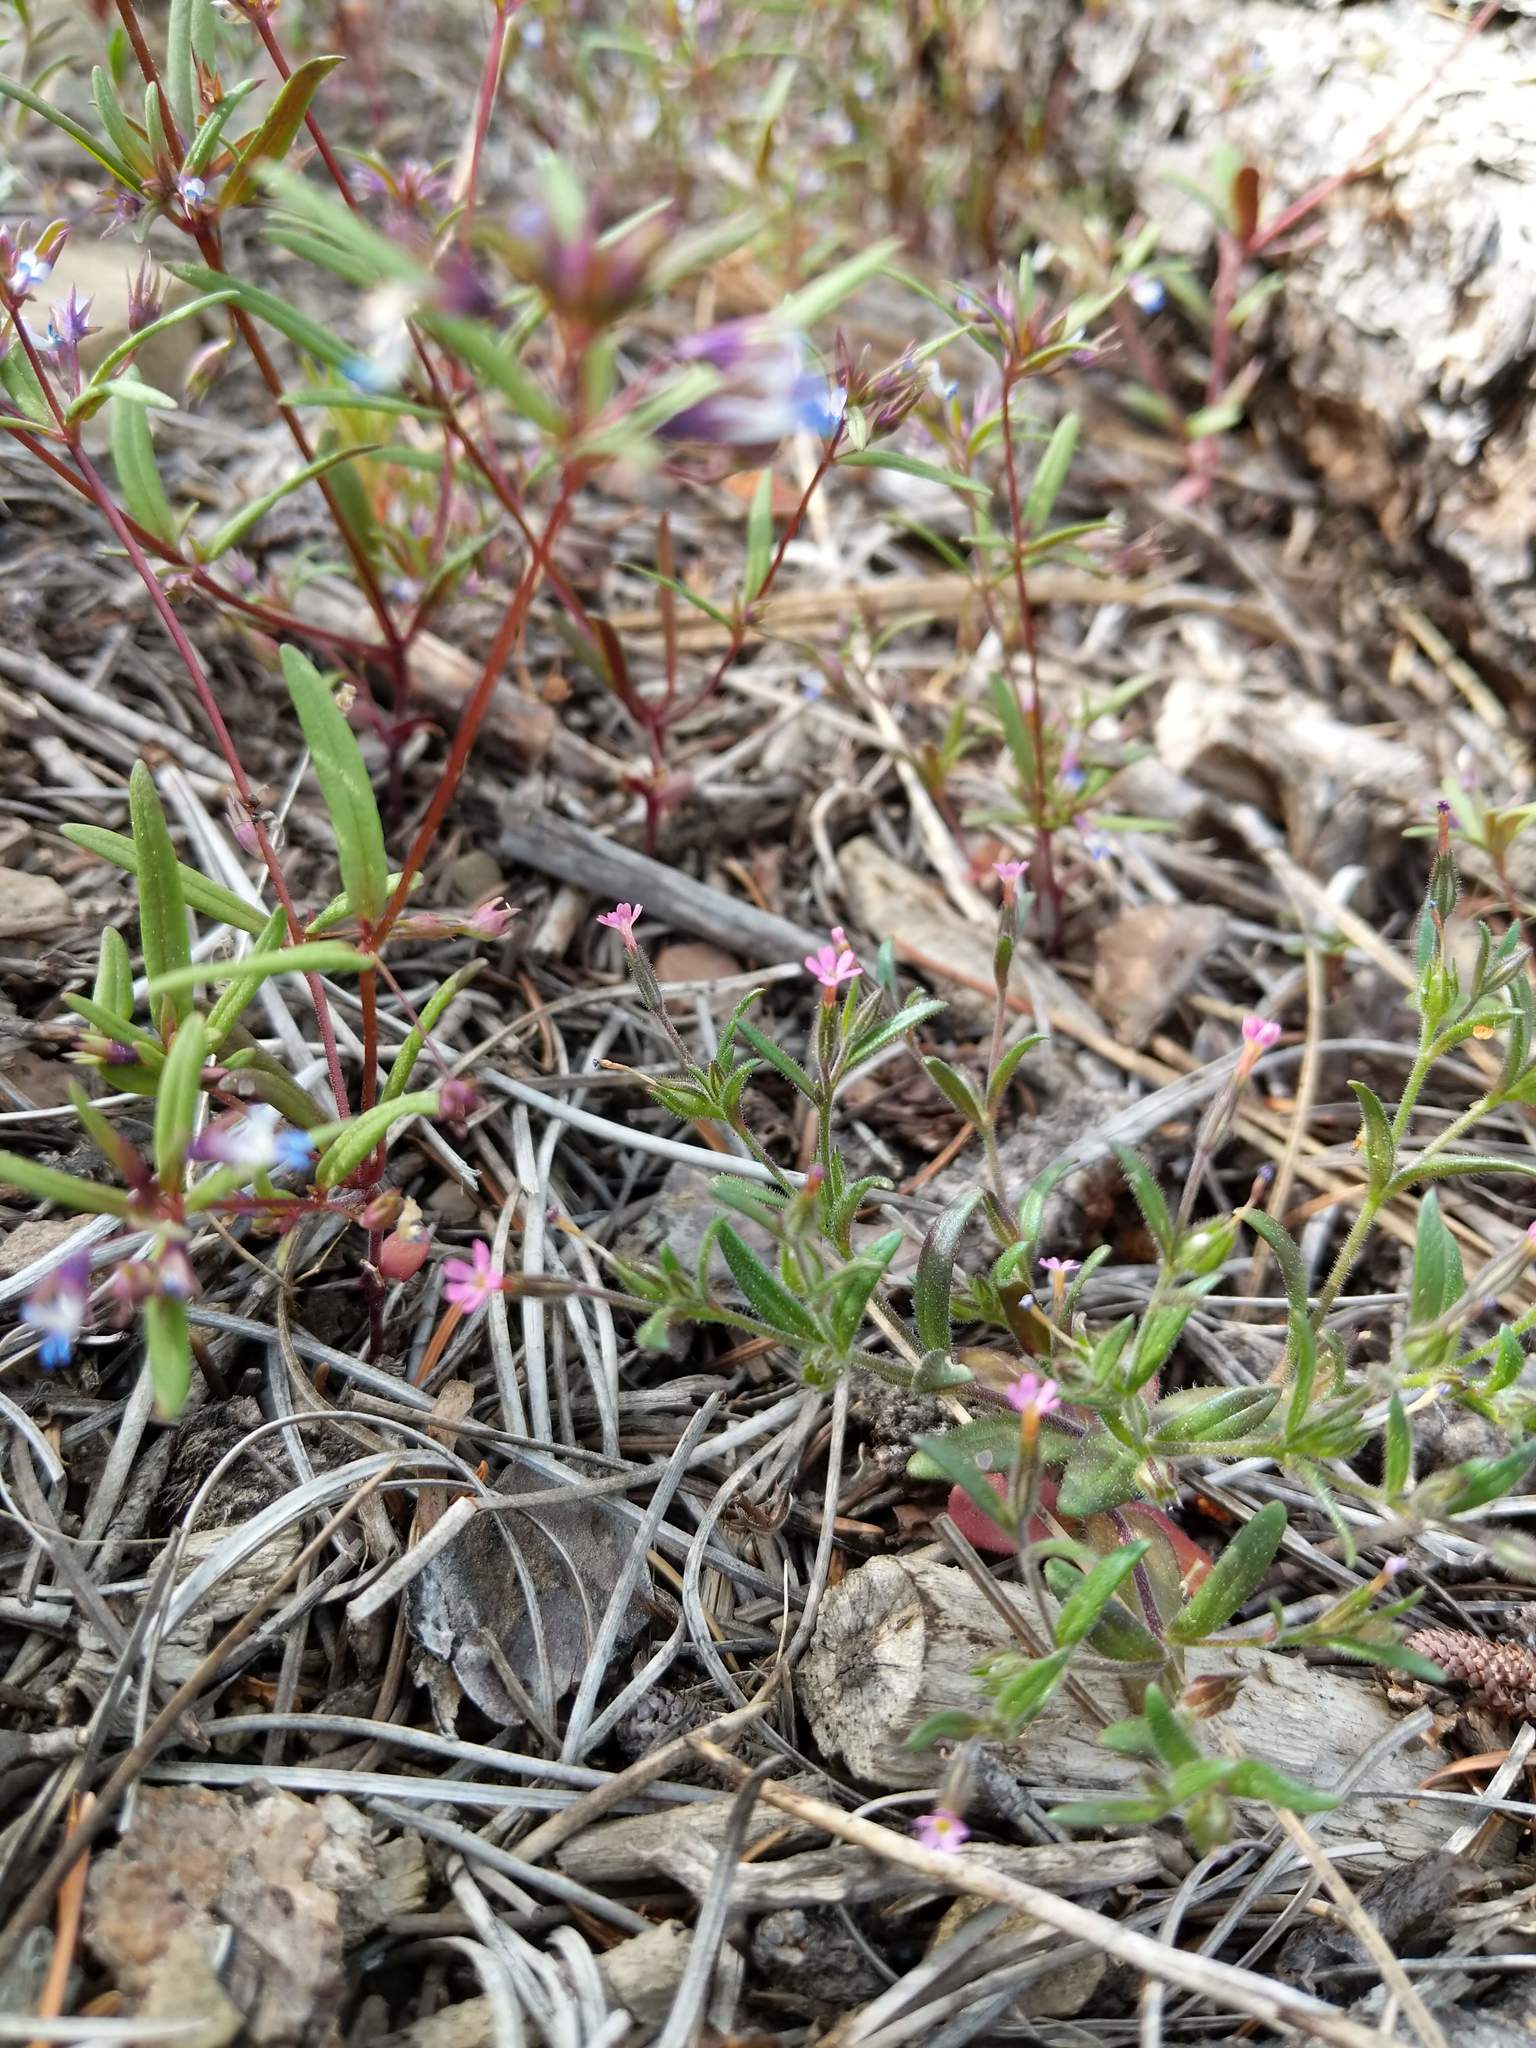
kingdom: Plantae
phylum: Tracheophyta
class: Magnoliopsida
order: Ericales
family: Polemoniaceae
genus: Phlox
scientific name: Phlox gracilis
